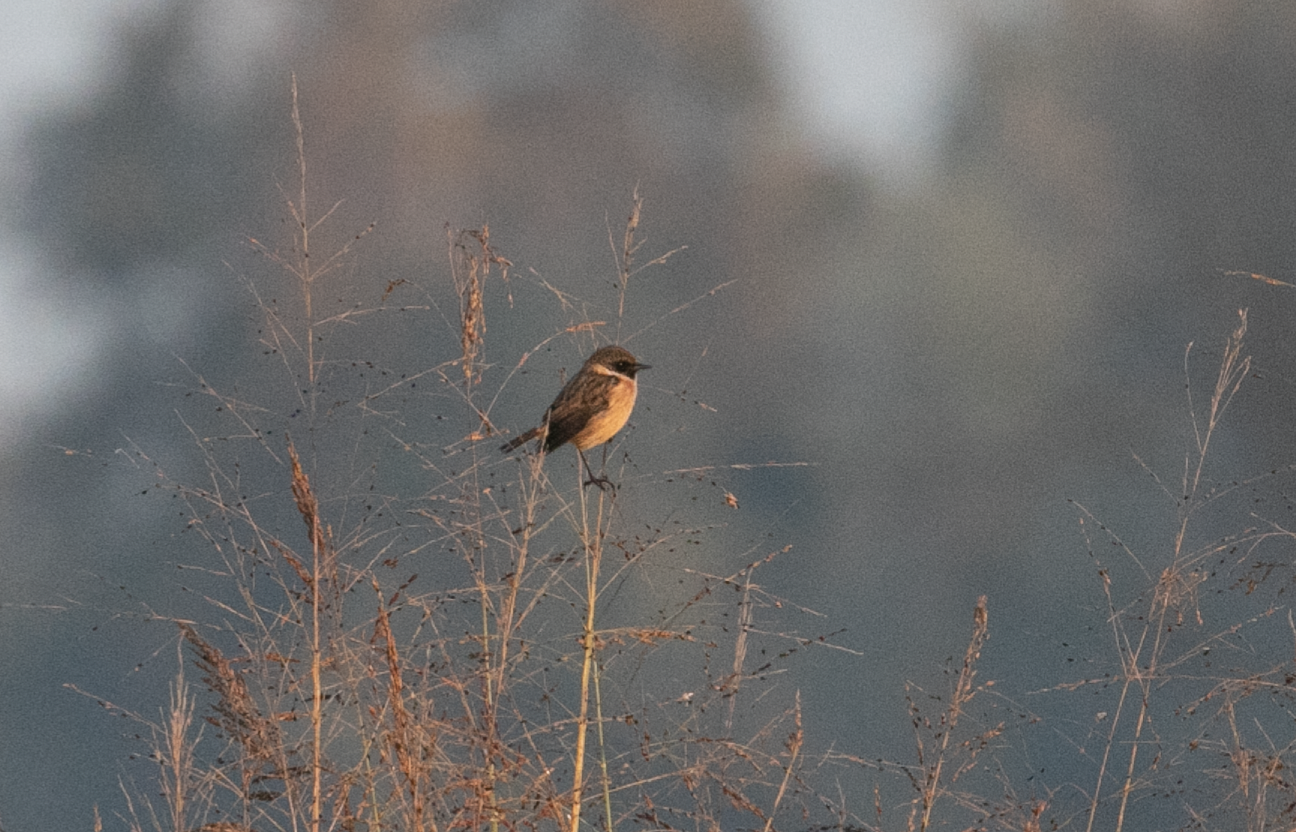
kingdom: Animalia
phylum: Chordata
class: Aves
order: Passeriformes
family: Muscicapidae
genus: Saxicola
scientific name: Saxicola rubicola
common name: European stonechat
